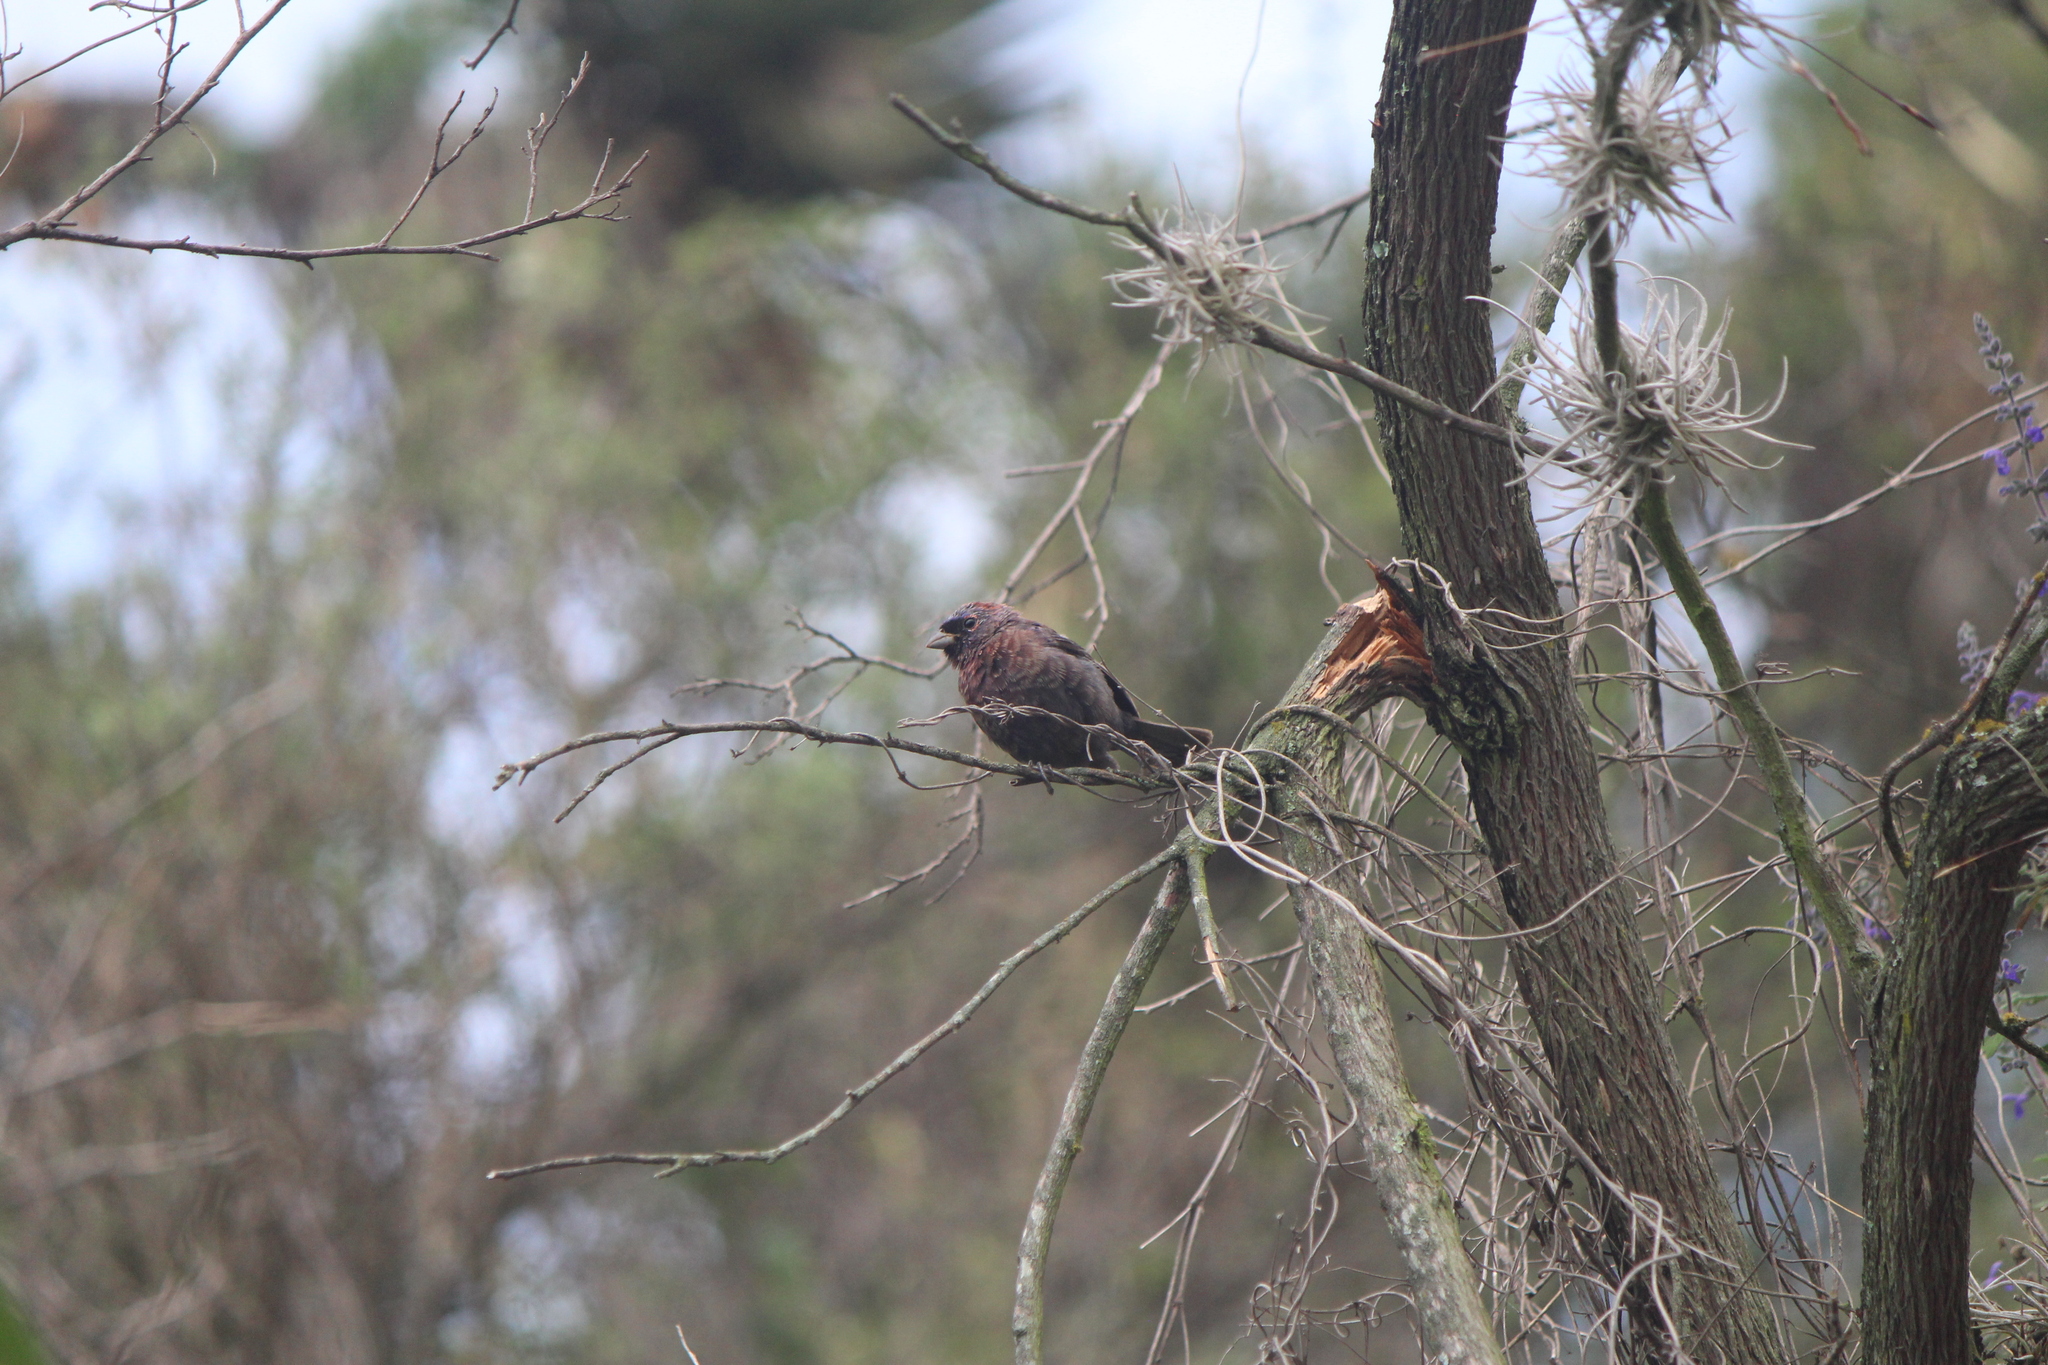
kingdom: Animalia
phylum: Chordata
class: Aves
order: Passeriformes
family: Cardinalidae
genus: Passerina
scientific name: Passerina versicolor
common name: Varied bunting
